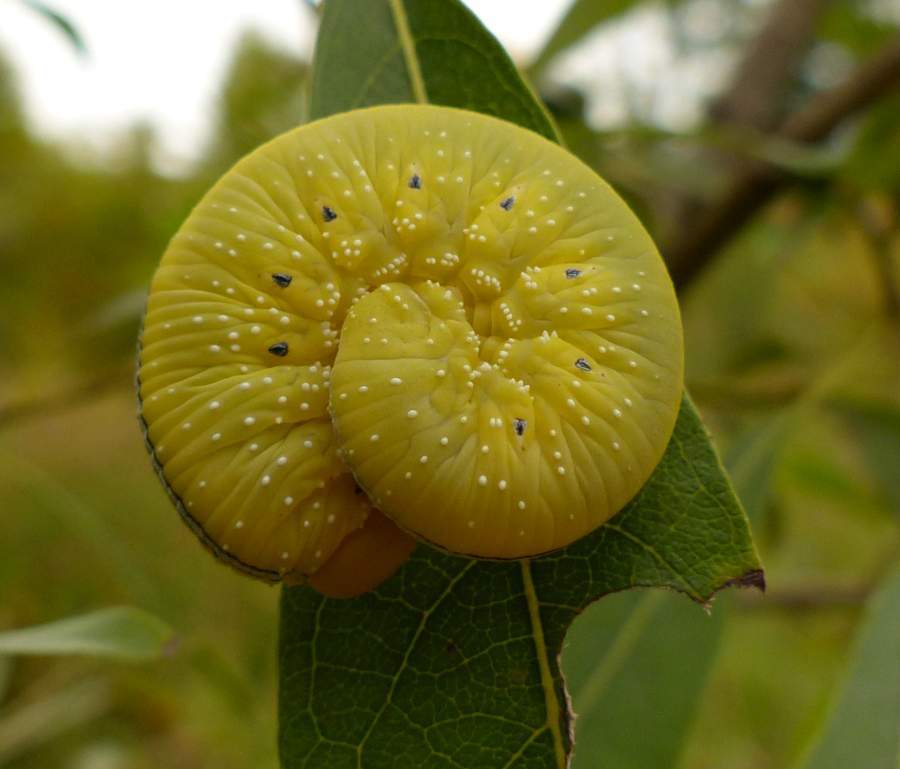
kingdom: Animalia
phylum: Arthropoda
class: Insecta
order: Hymenoptera
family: Cimbicidae
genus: Cimbex
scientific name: Cimbex americana
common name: Elm sawfly
